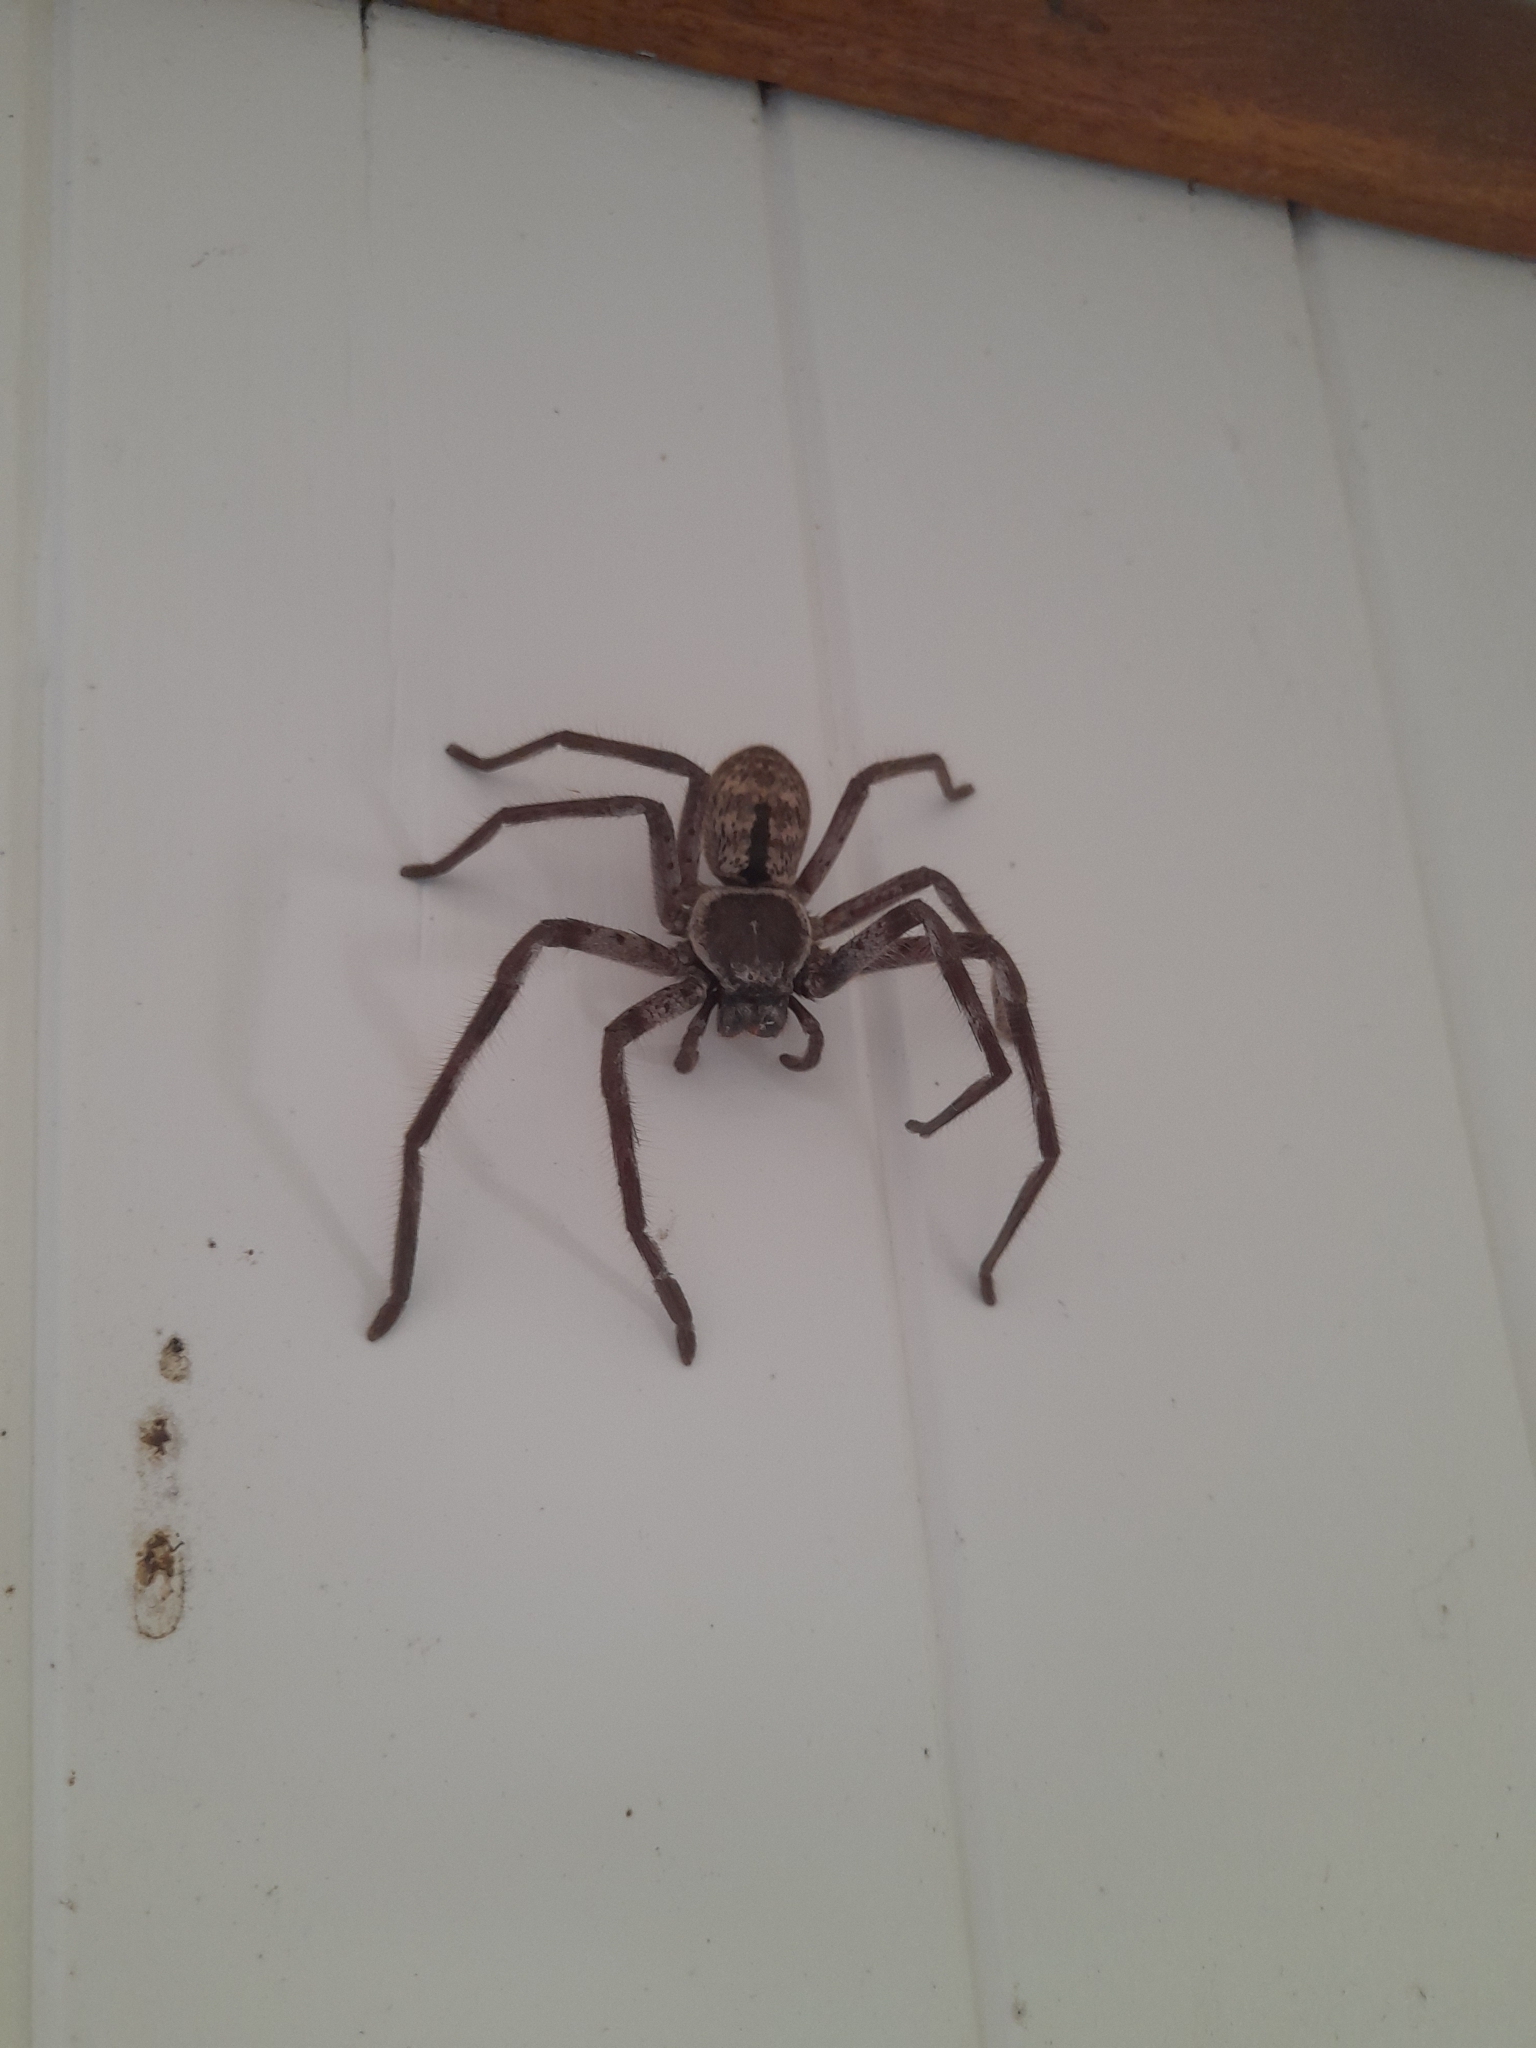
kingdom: Animalia
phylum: Arthropoda
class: Arachnida
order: Araneae
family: Sparassidae
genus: Holconia
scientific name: Holconia immanis
